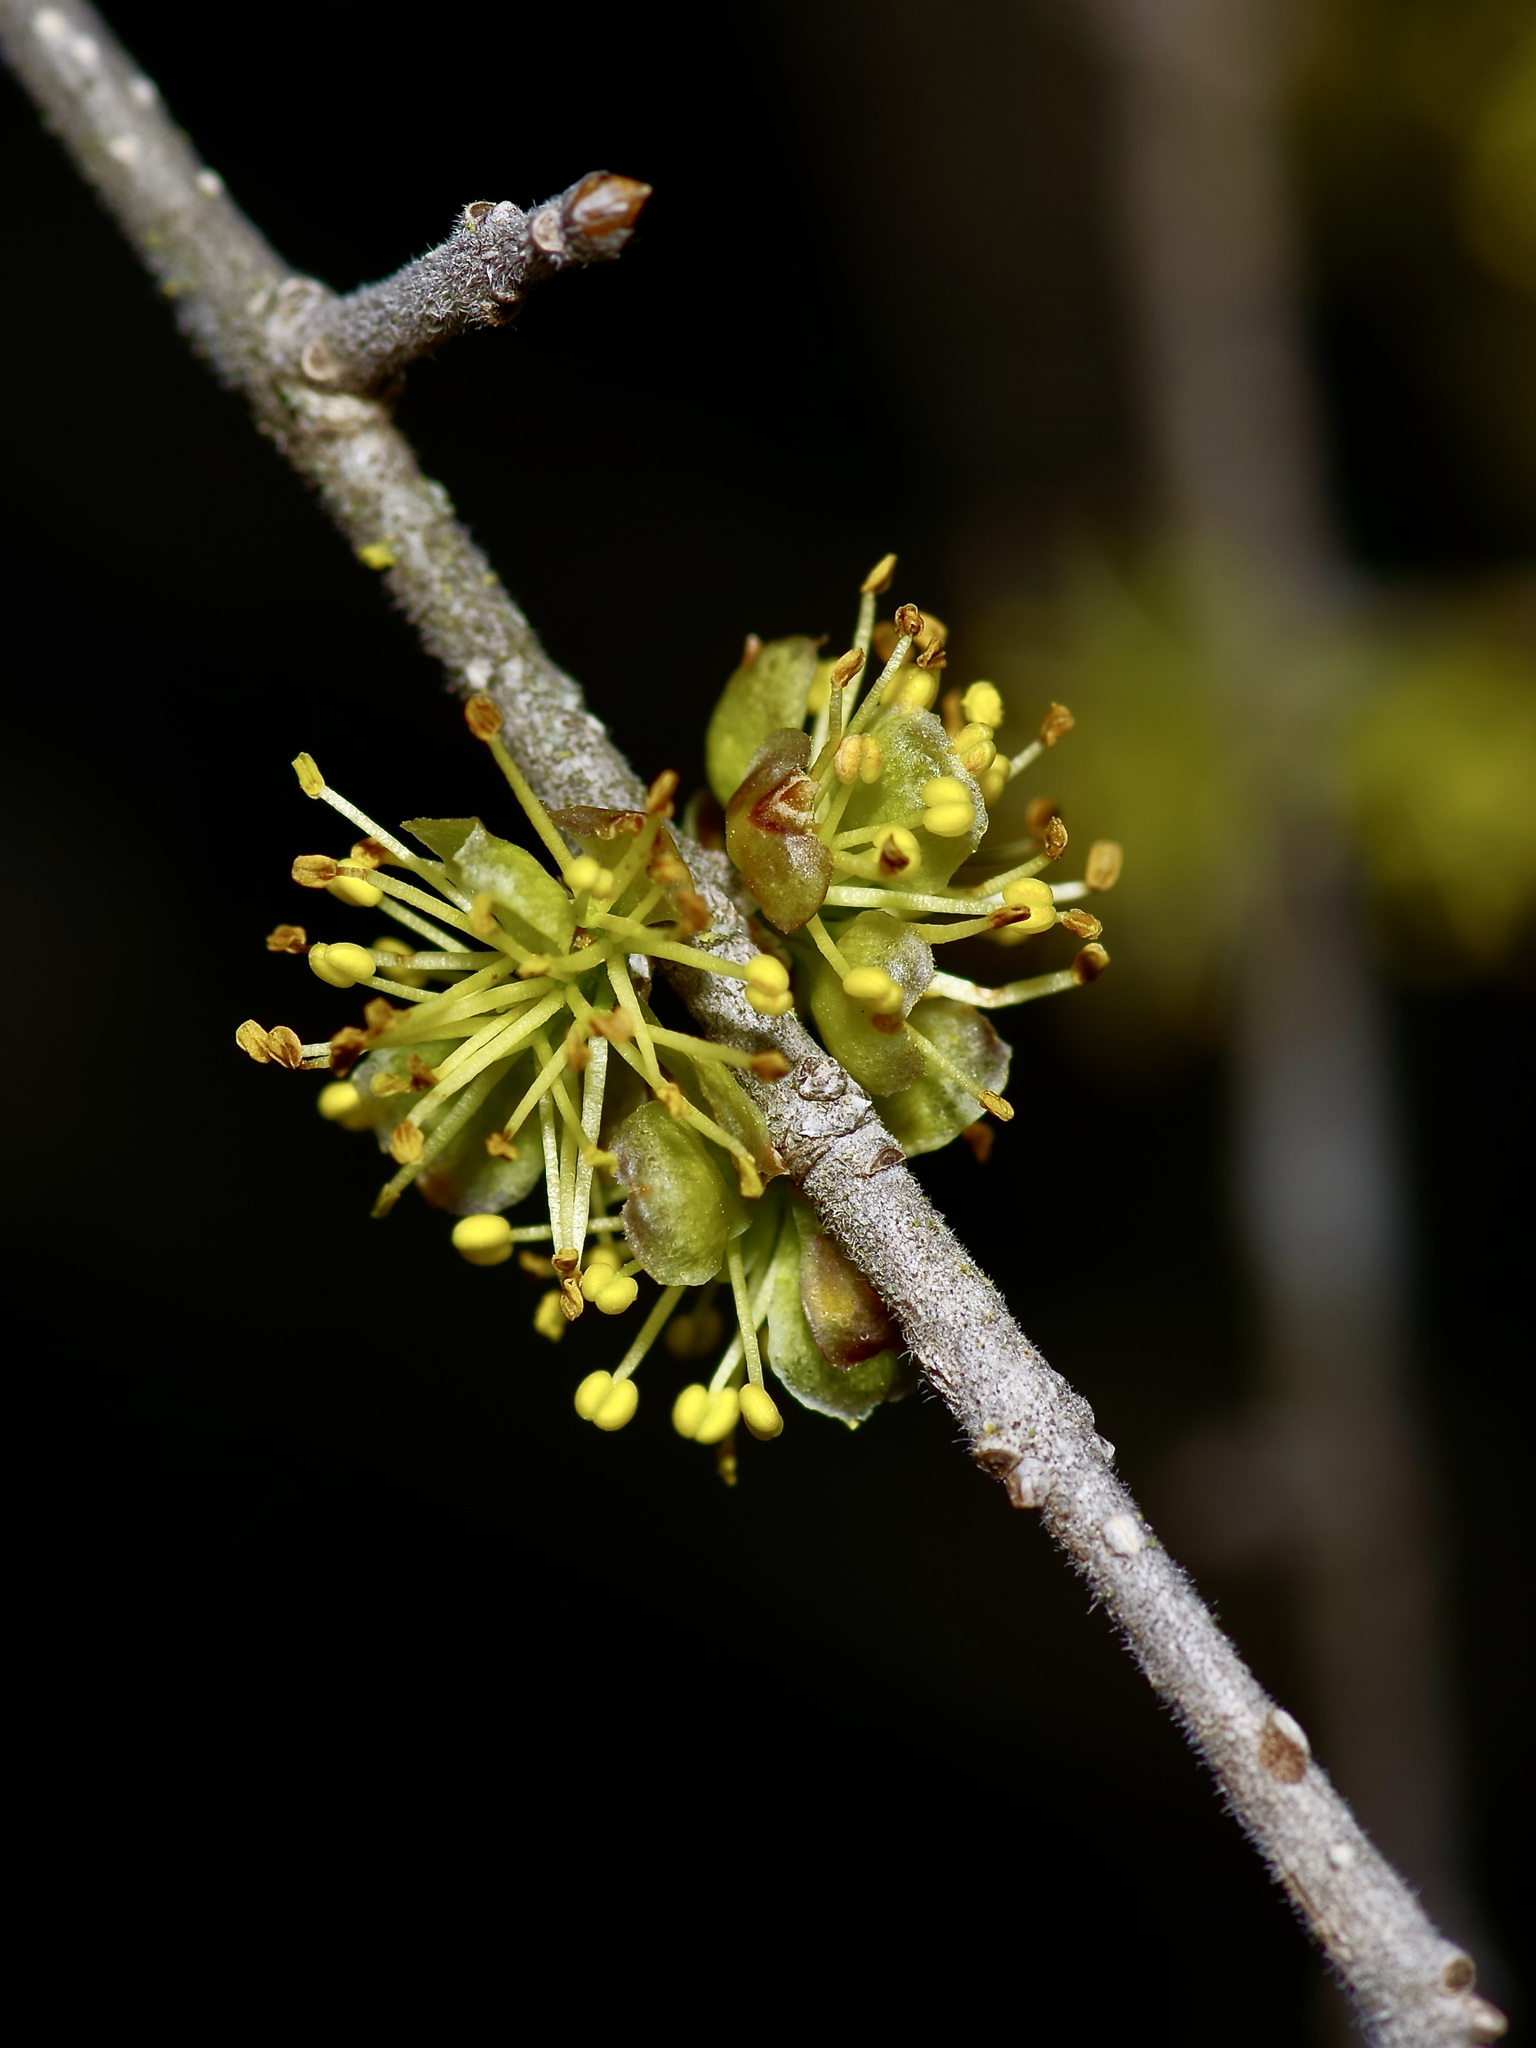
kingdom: Plantae
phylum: Tracheophyta
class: Magnoliopsida
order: Lamiales
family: Oleaceae
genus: Forestiera
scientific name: Forestiera pubescens
